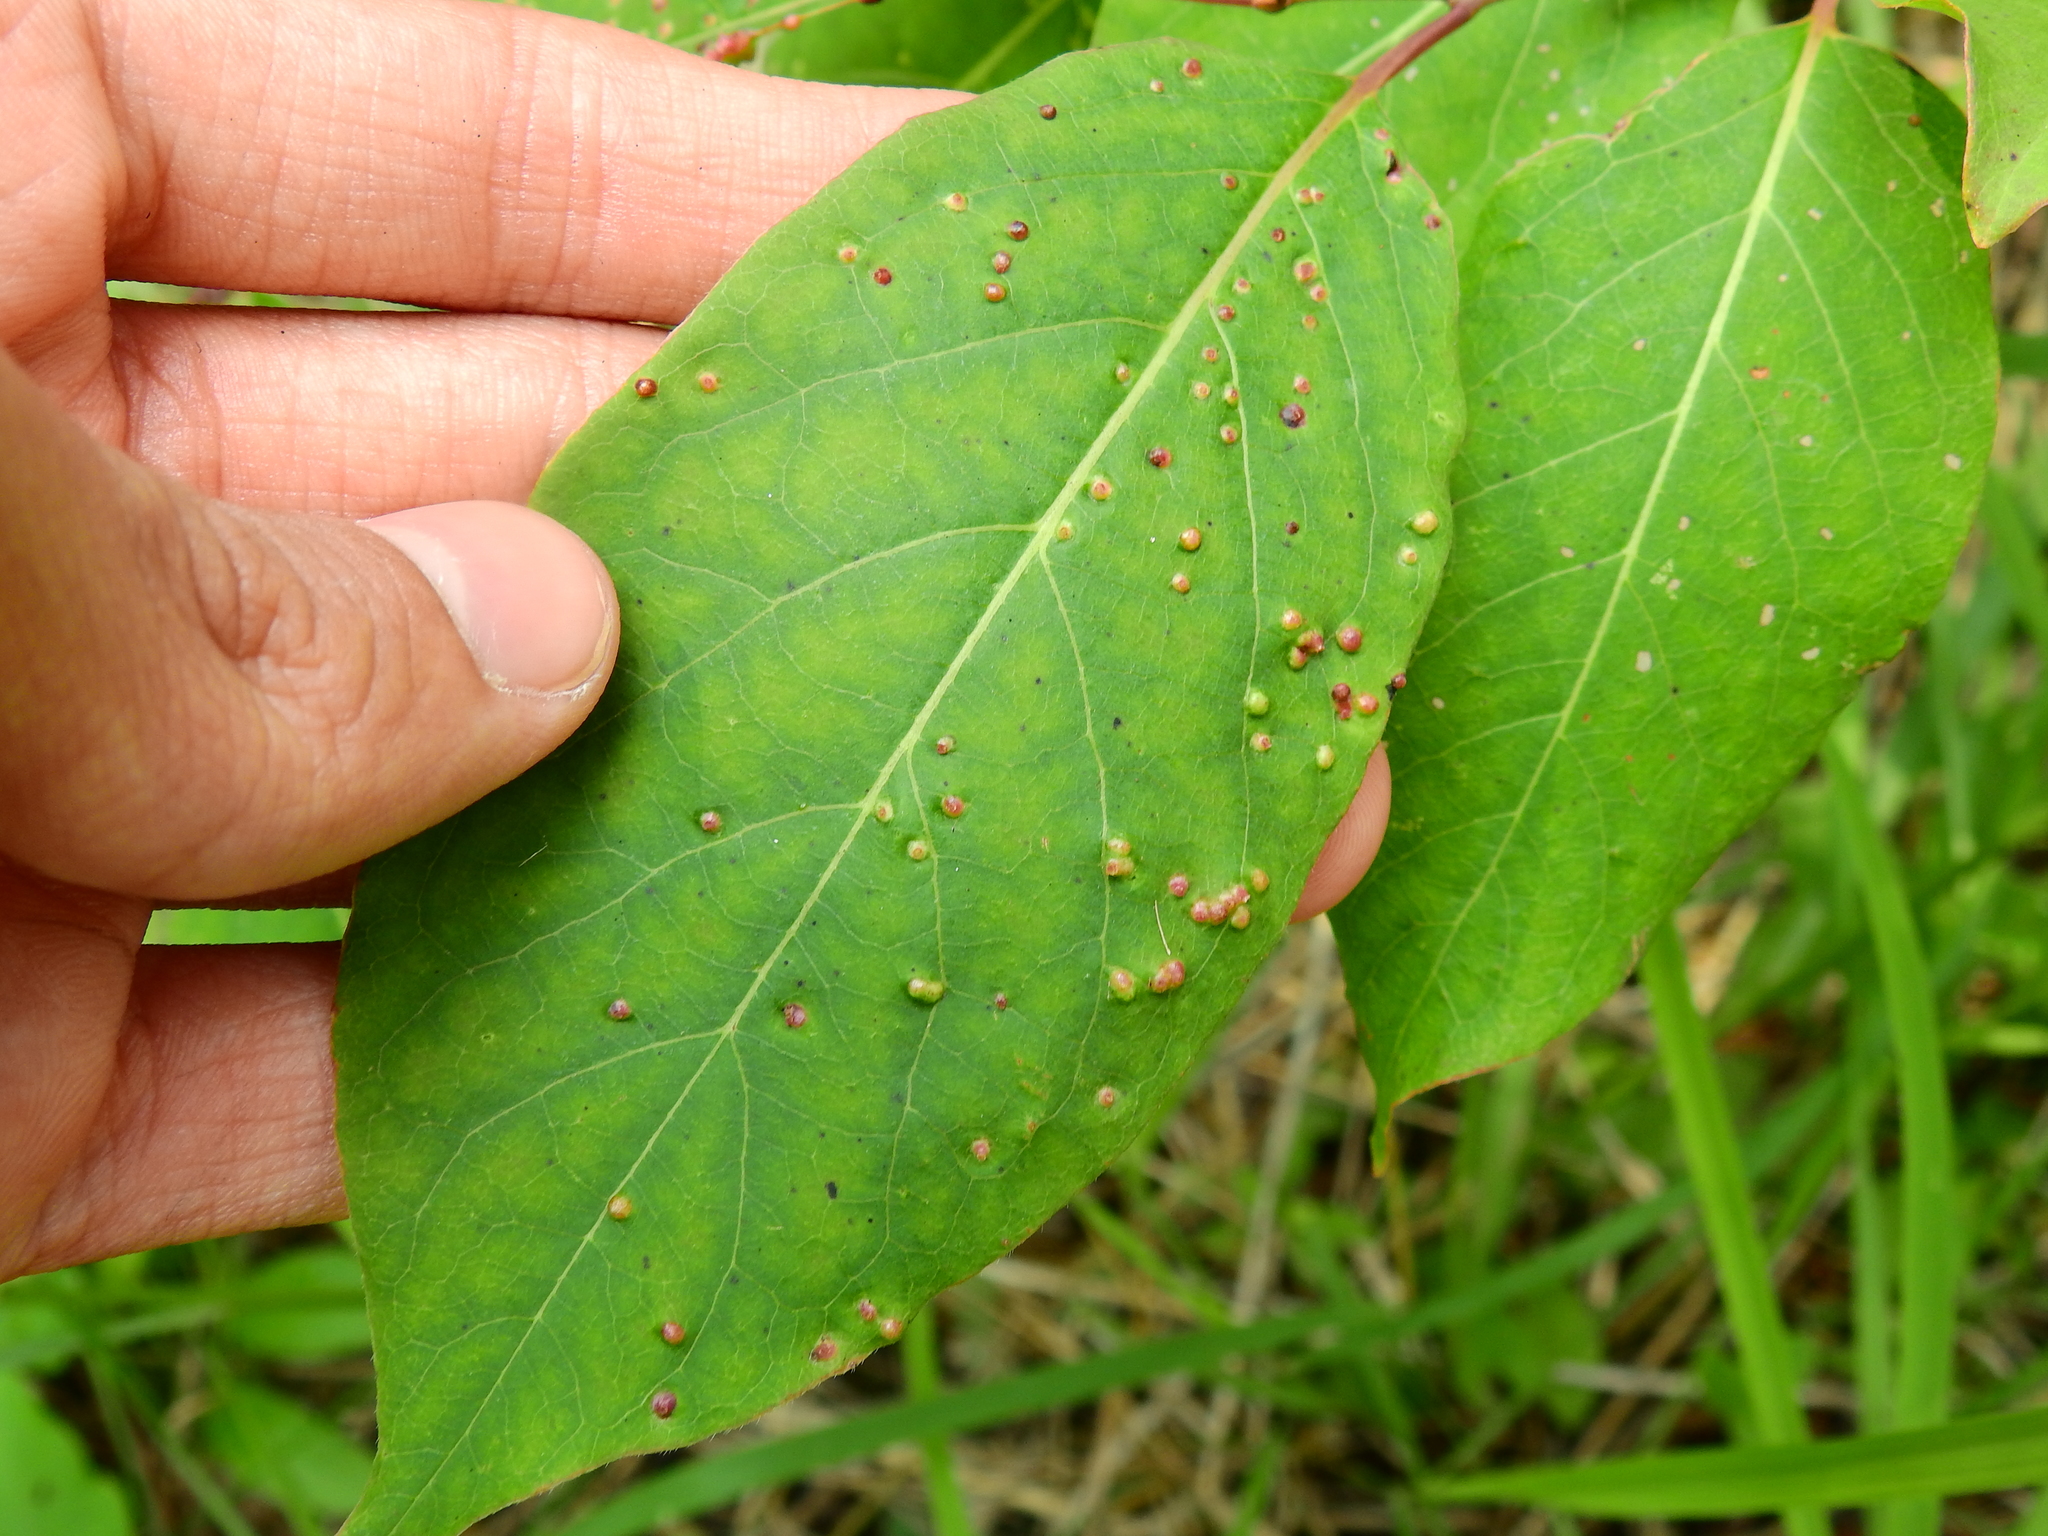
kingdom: Animalia
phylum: Arthropoda
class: Arachnida
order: Trombidiformes
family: Eriophyidae
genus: Aceria
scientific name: Aceria
